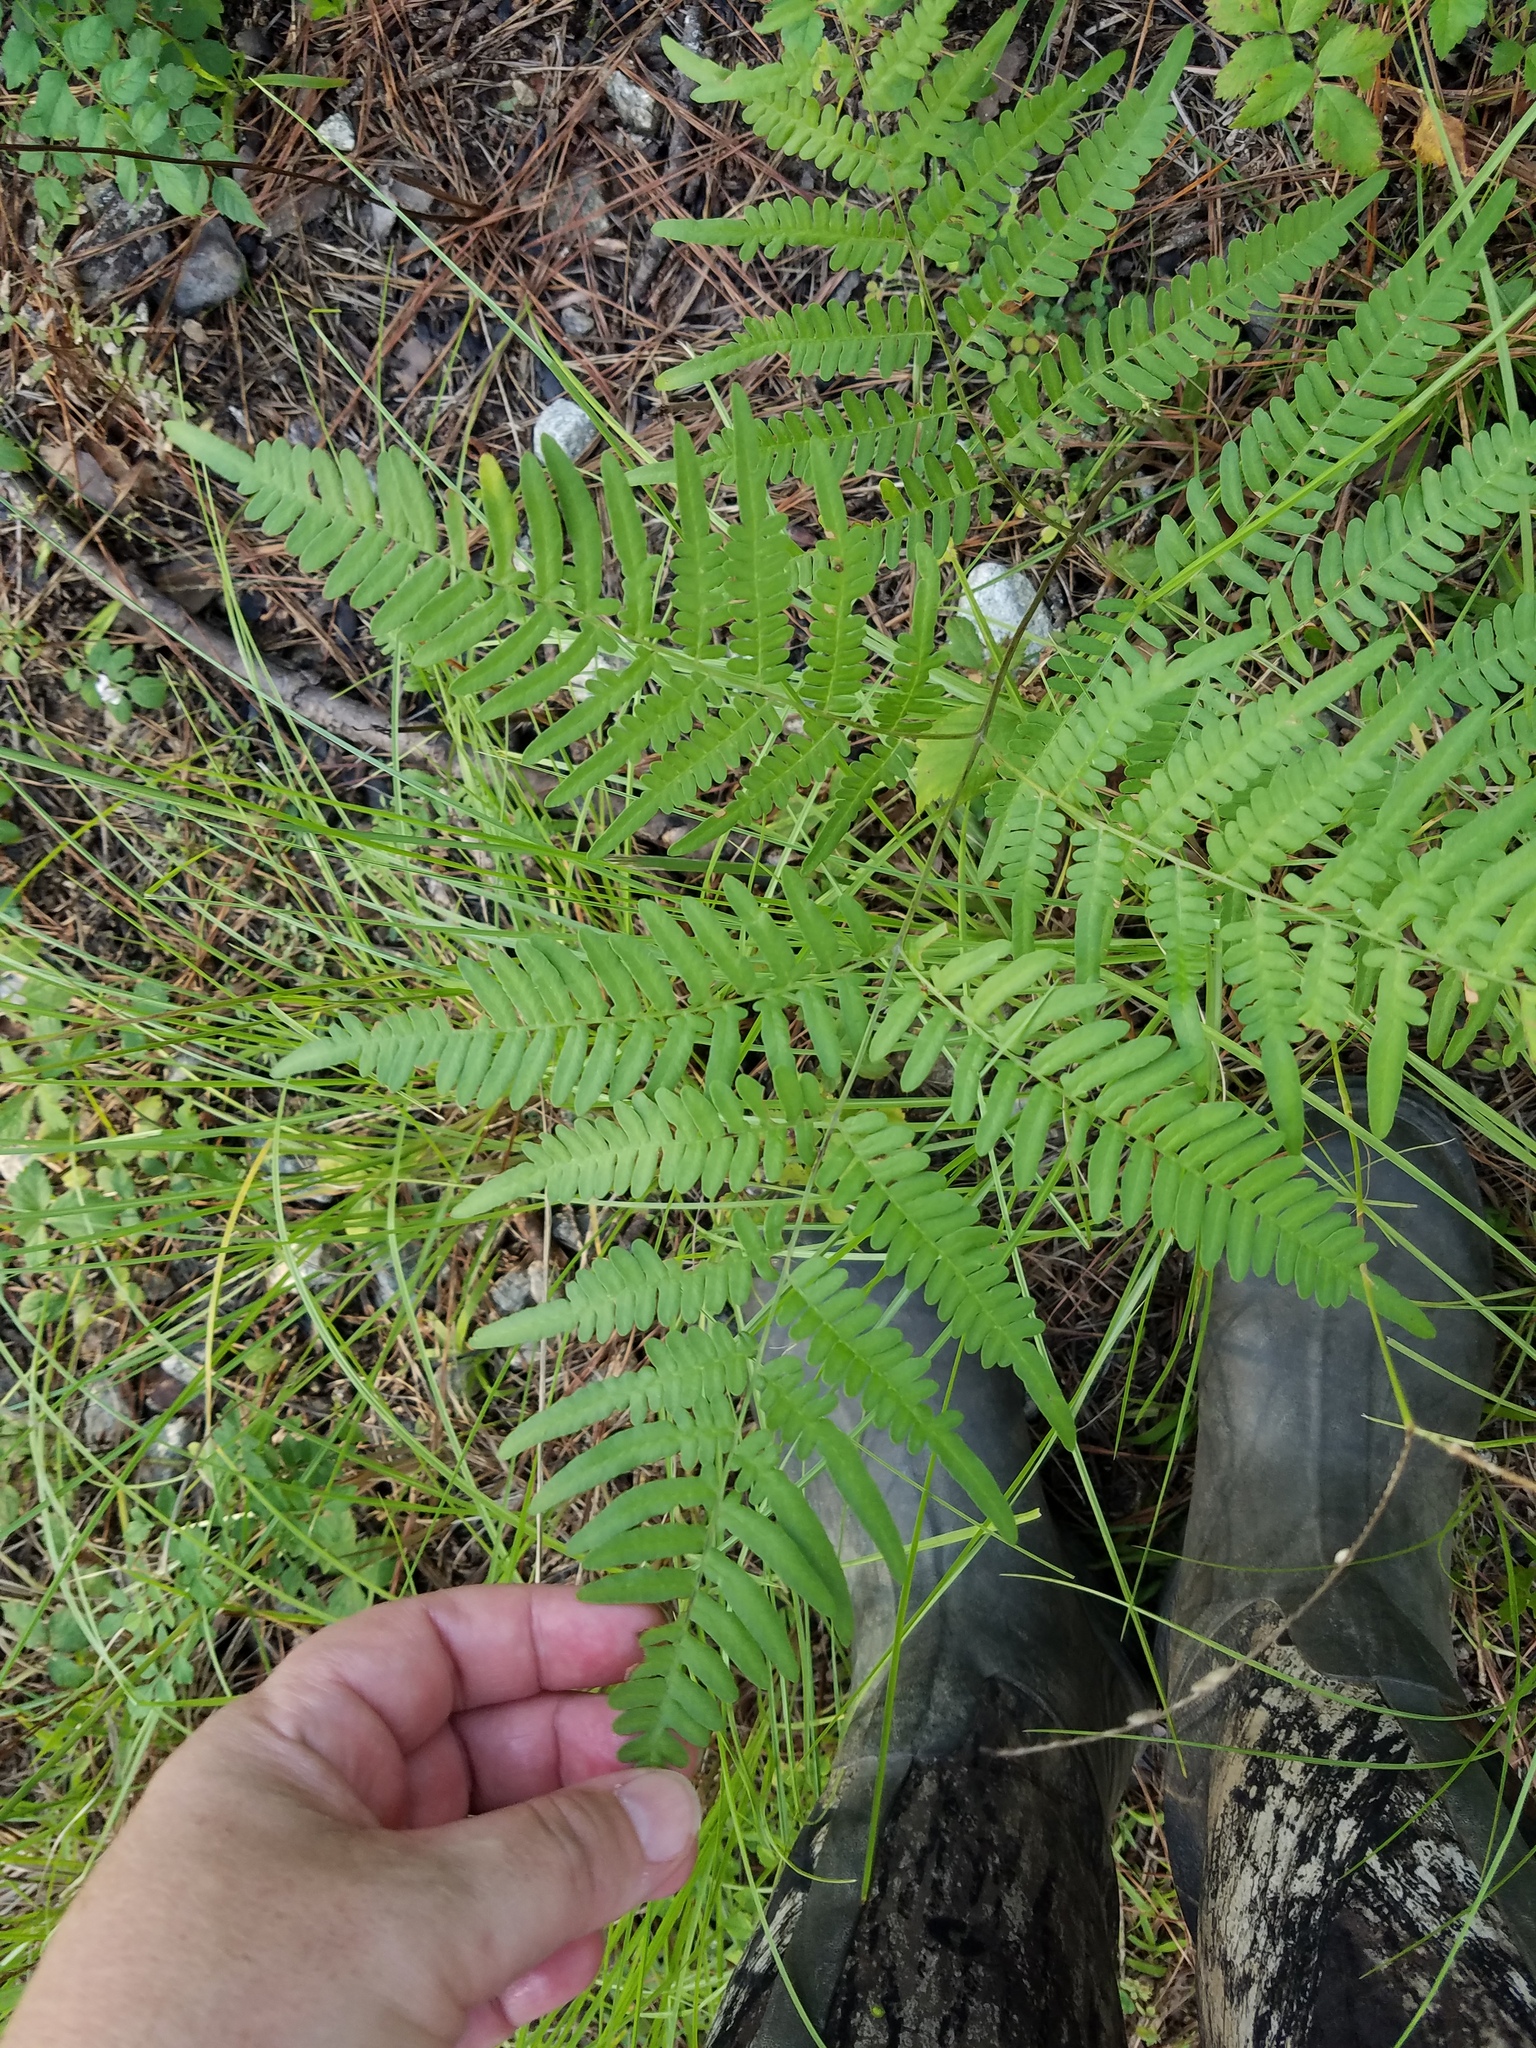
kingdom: Plantae
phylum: Tracheophyta
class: Polypodiopsida
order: Polypodiales
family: Dennstaedtiaceae
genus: Pteridium
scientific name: Pteridium aquilinum
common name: Bracken
